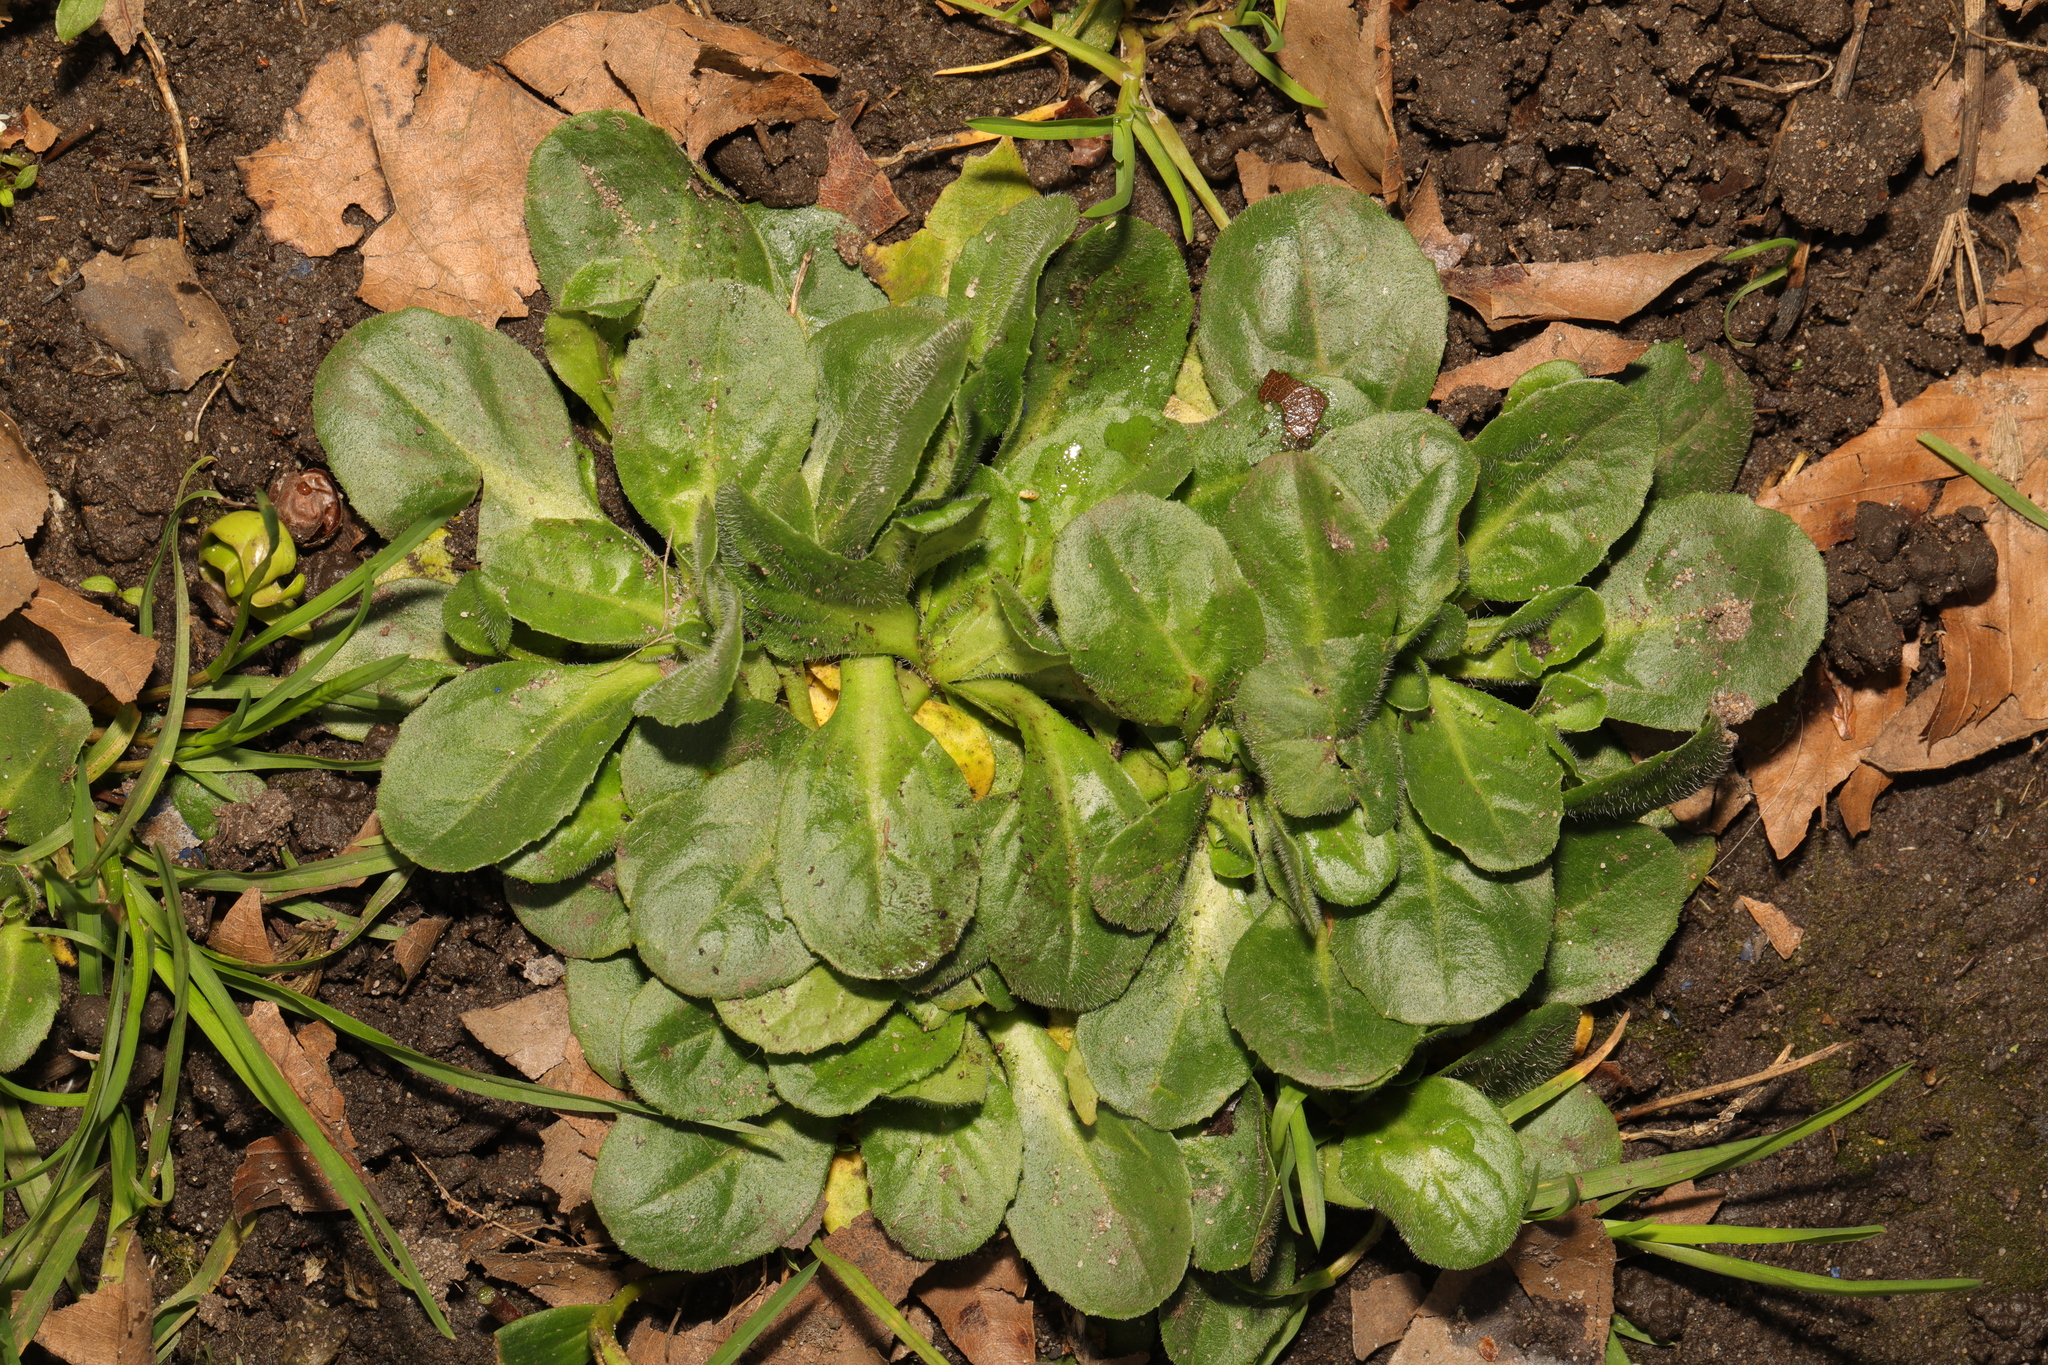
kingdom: Plantae
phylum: Tracheophyta
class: Magnoliopsida
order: Asterales
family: Asteraceae
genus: Bellis
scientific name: Bellis perennis
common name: Lawndaisy
